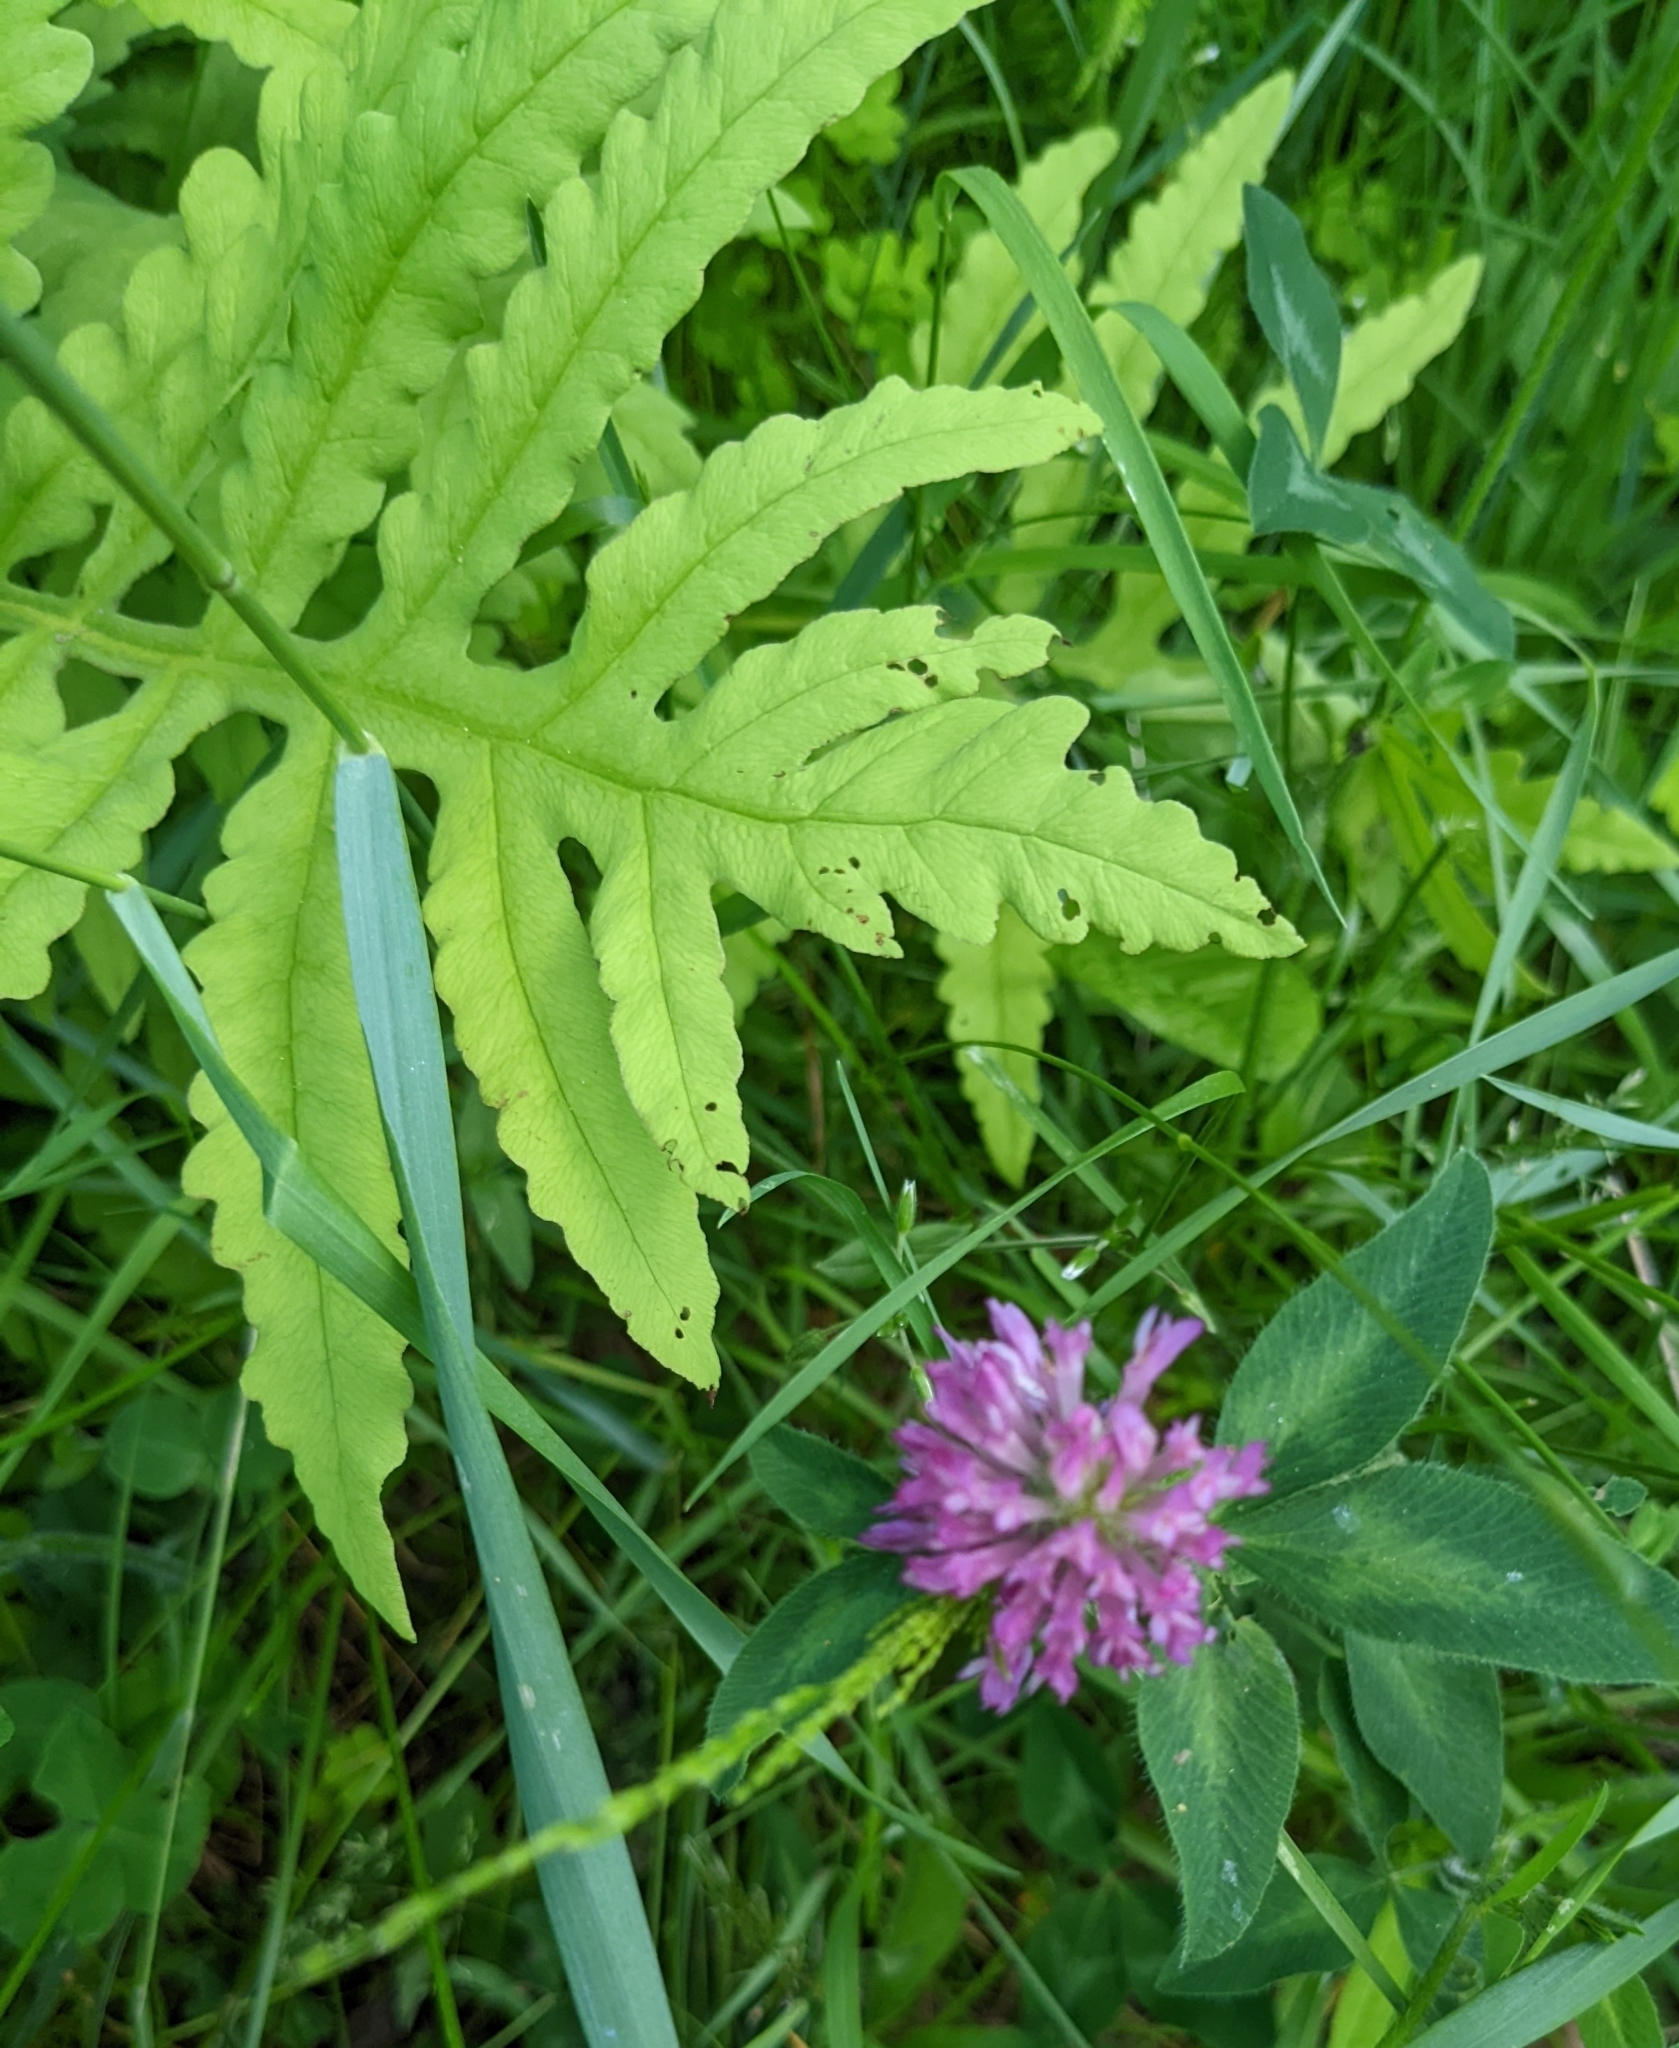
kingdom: Plantae
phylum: Tracheophyta
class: Polypodiopsida
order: Polypodiales
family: Onocleaceae
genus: Onoclea
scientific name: Onoclea sensibilis
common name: Sensitive fern
